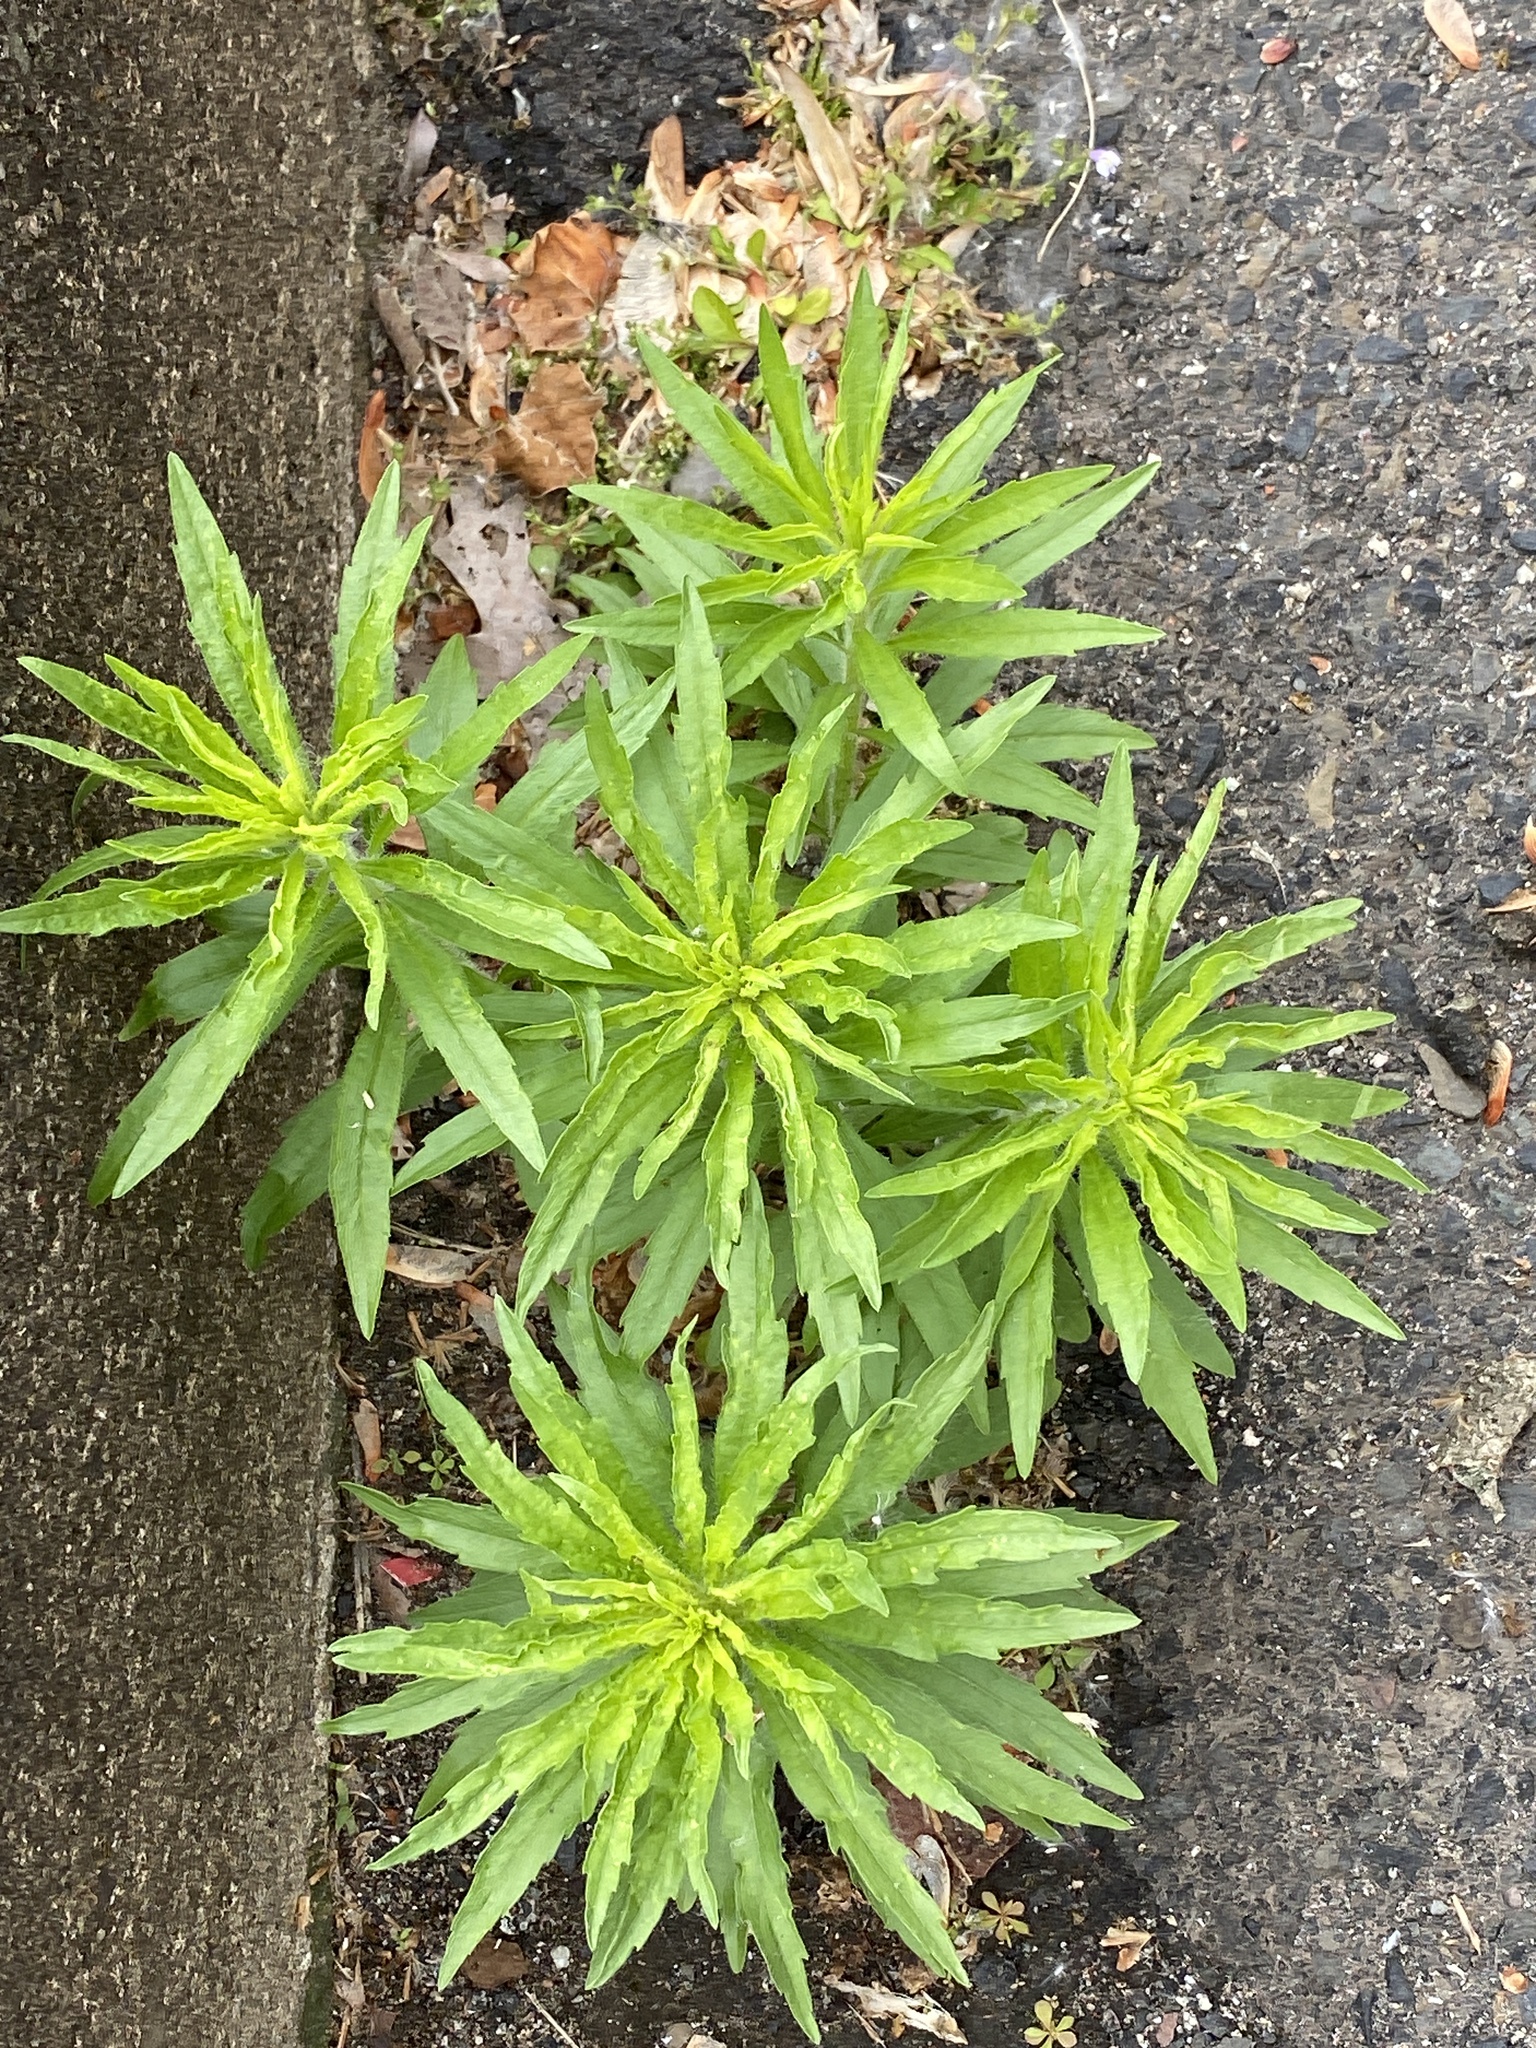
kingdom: Plantae
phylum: Tracheophyta
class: Magnoliopsida
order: Asterales
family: Asteraceae
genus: Erigeron
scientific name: Erigeron canadensis
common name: Canadian fleabane
